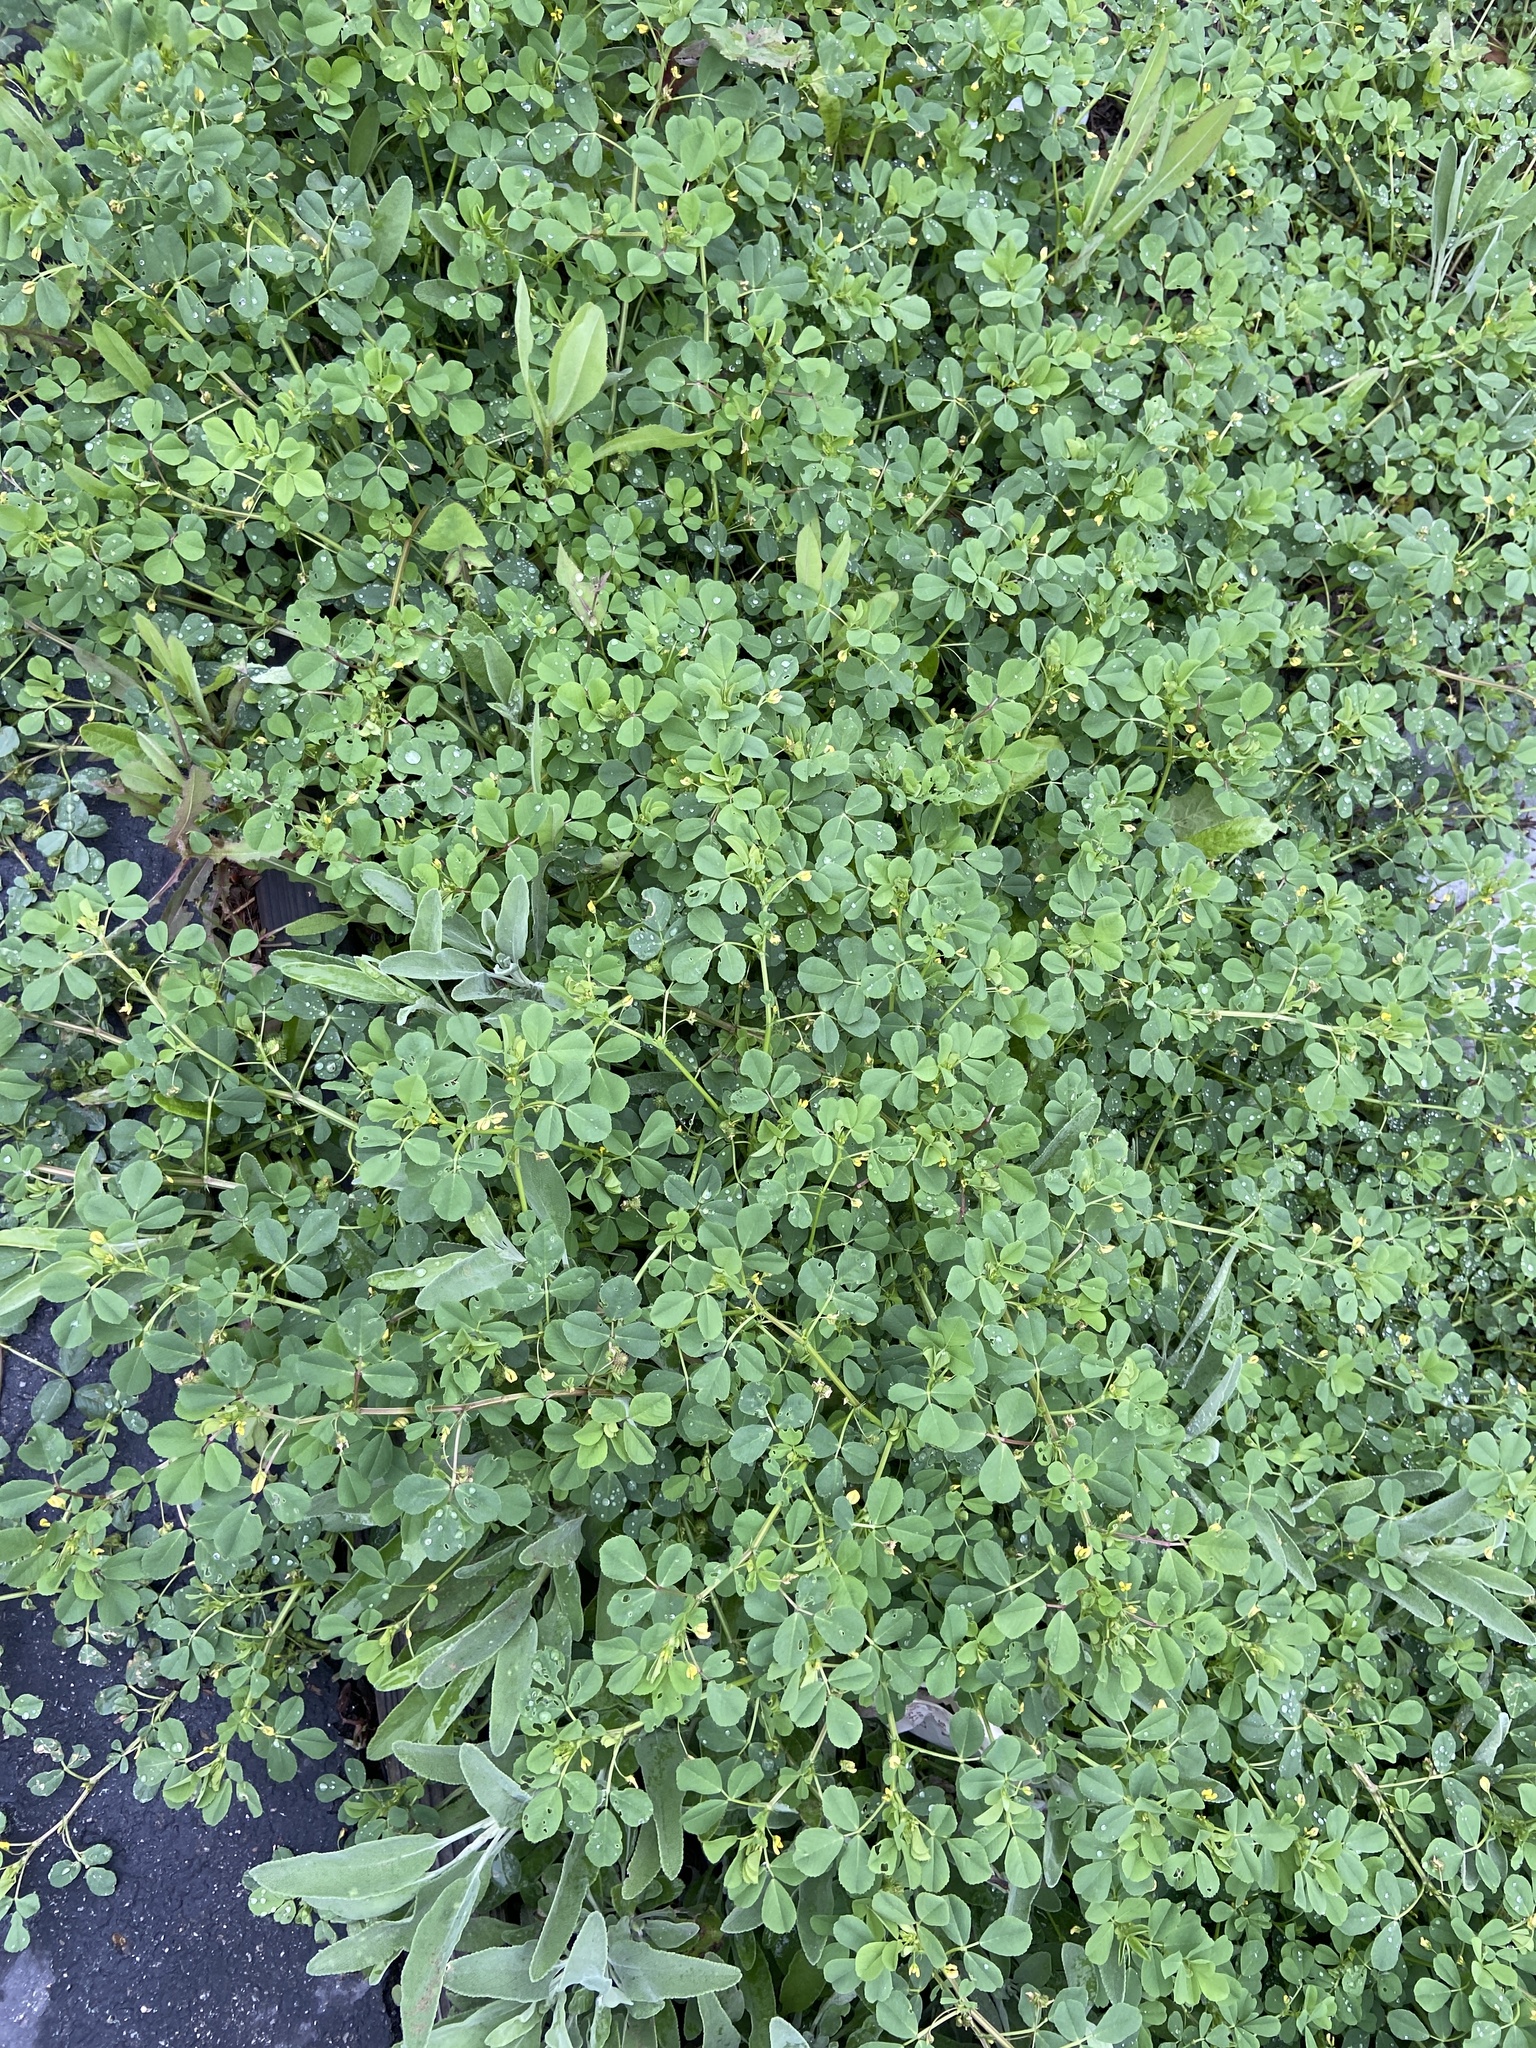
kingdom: Plantae
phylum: Tracheophyta
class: Magnoliopsida
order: Fabales
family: Fabaceae
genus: Medicago
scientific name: Medicago polymorpha
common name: Burclover
